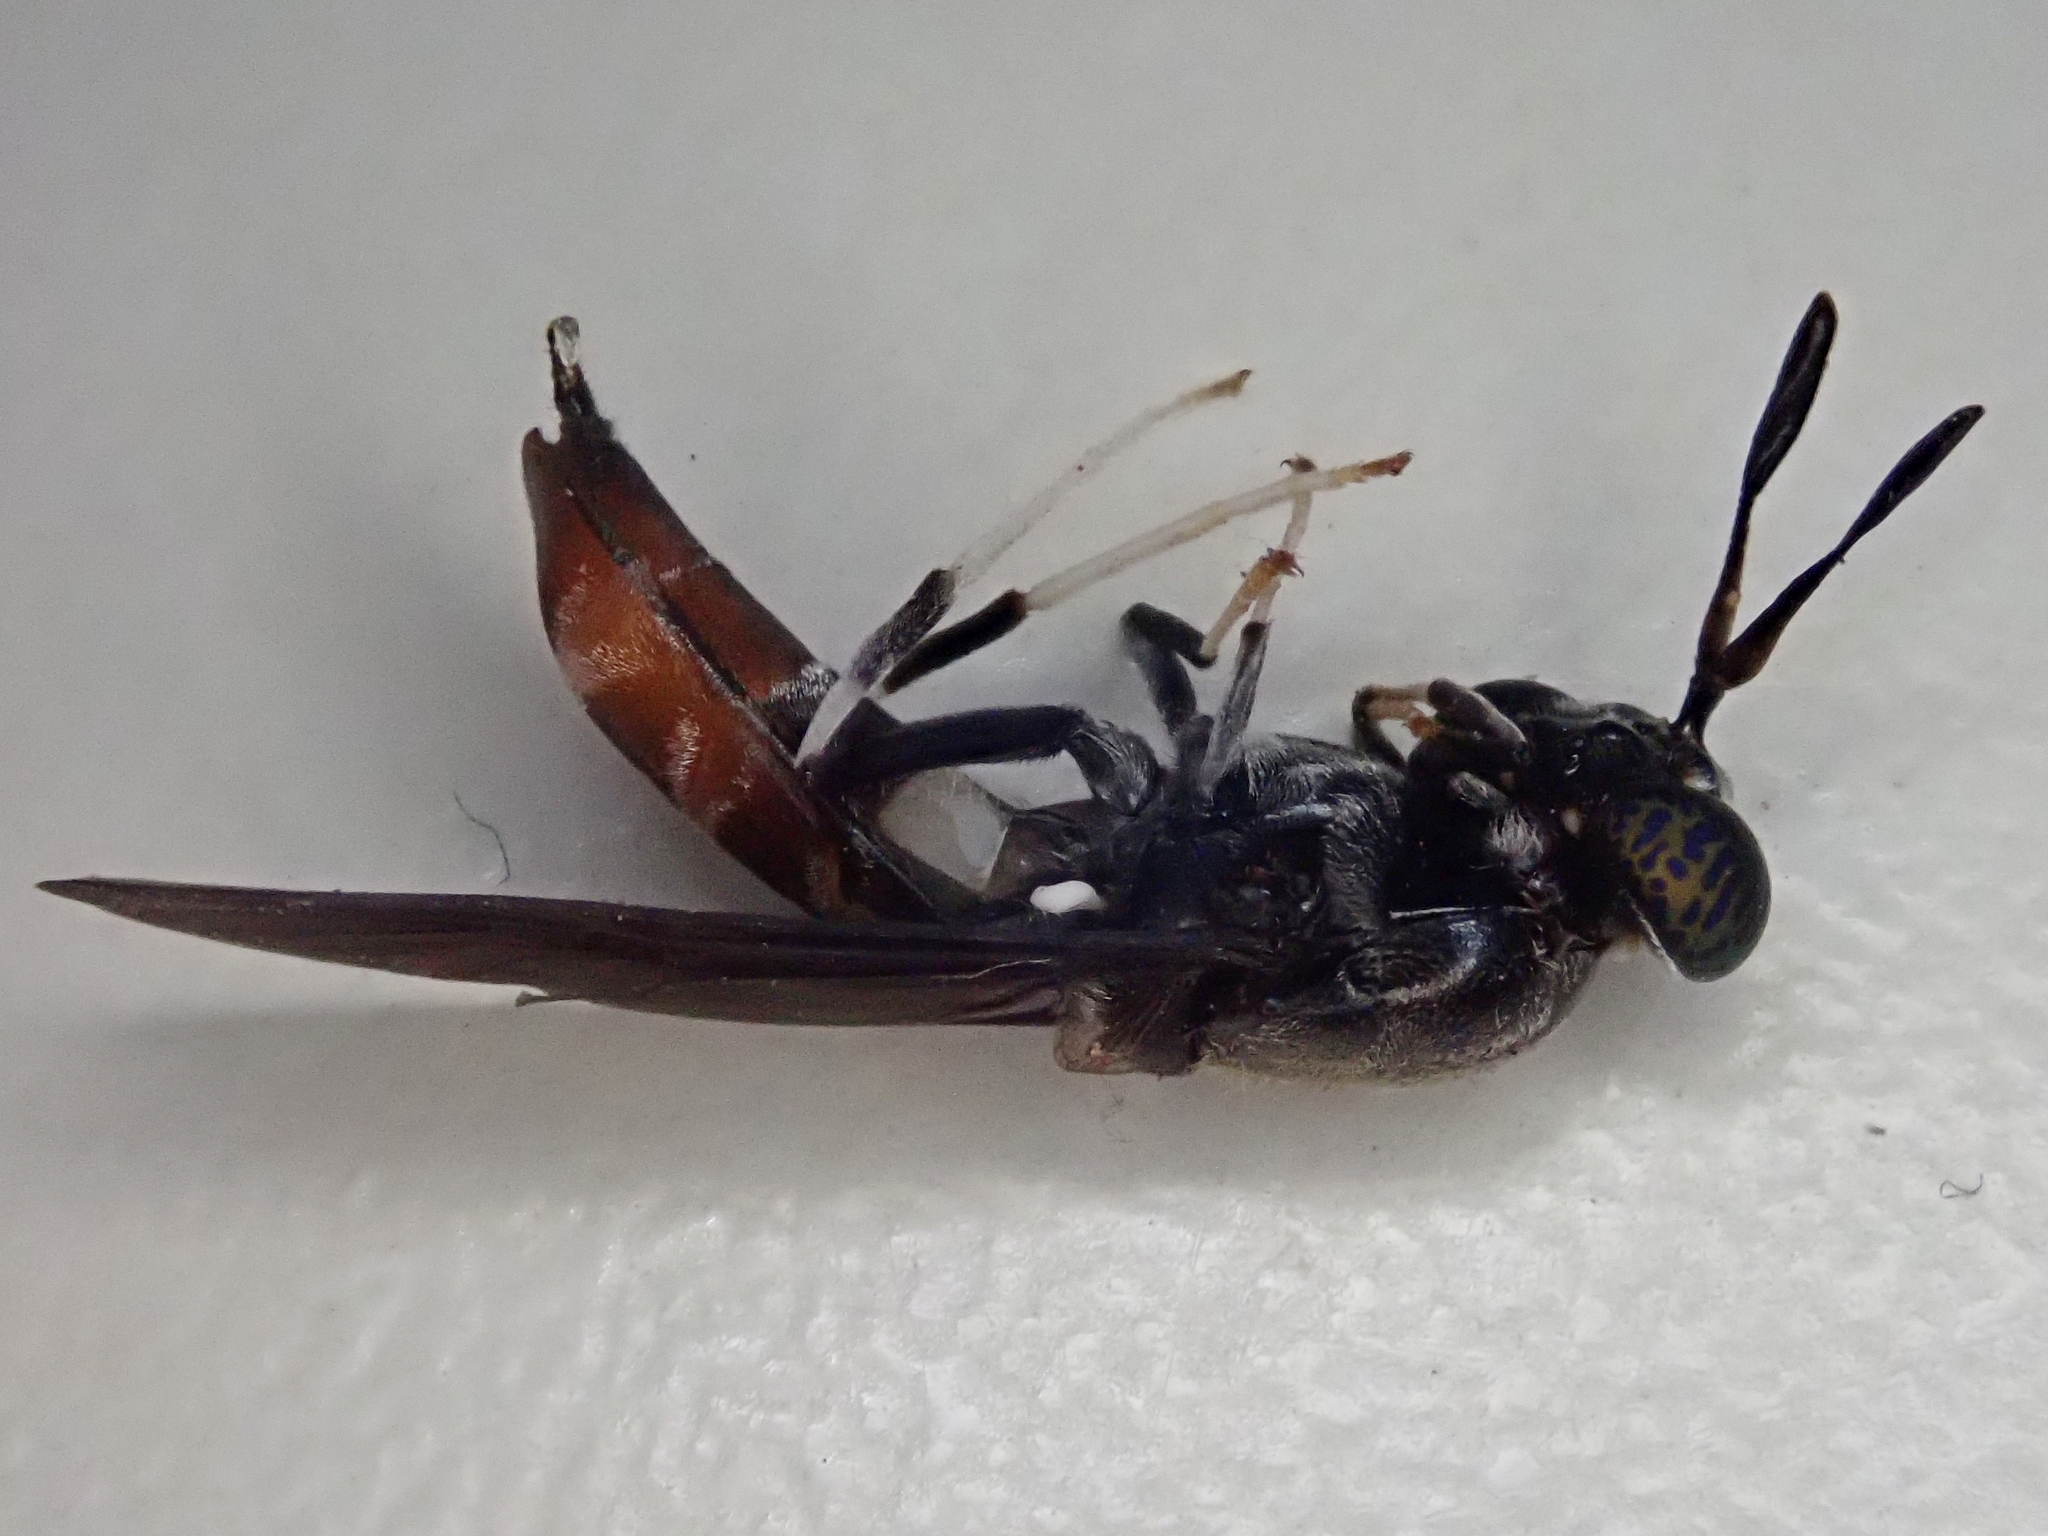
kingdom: Animalia
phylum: Arthropoda
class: Insecta
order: Diptera
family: Stratiomyidae
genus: Hermetia
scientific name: Hermetia illucens
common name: Black soldier fly
